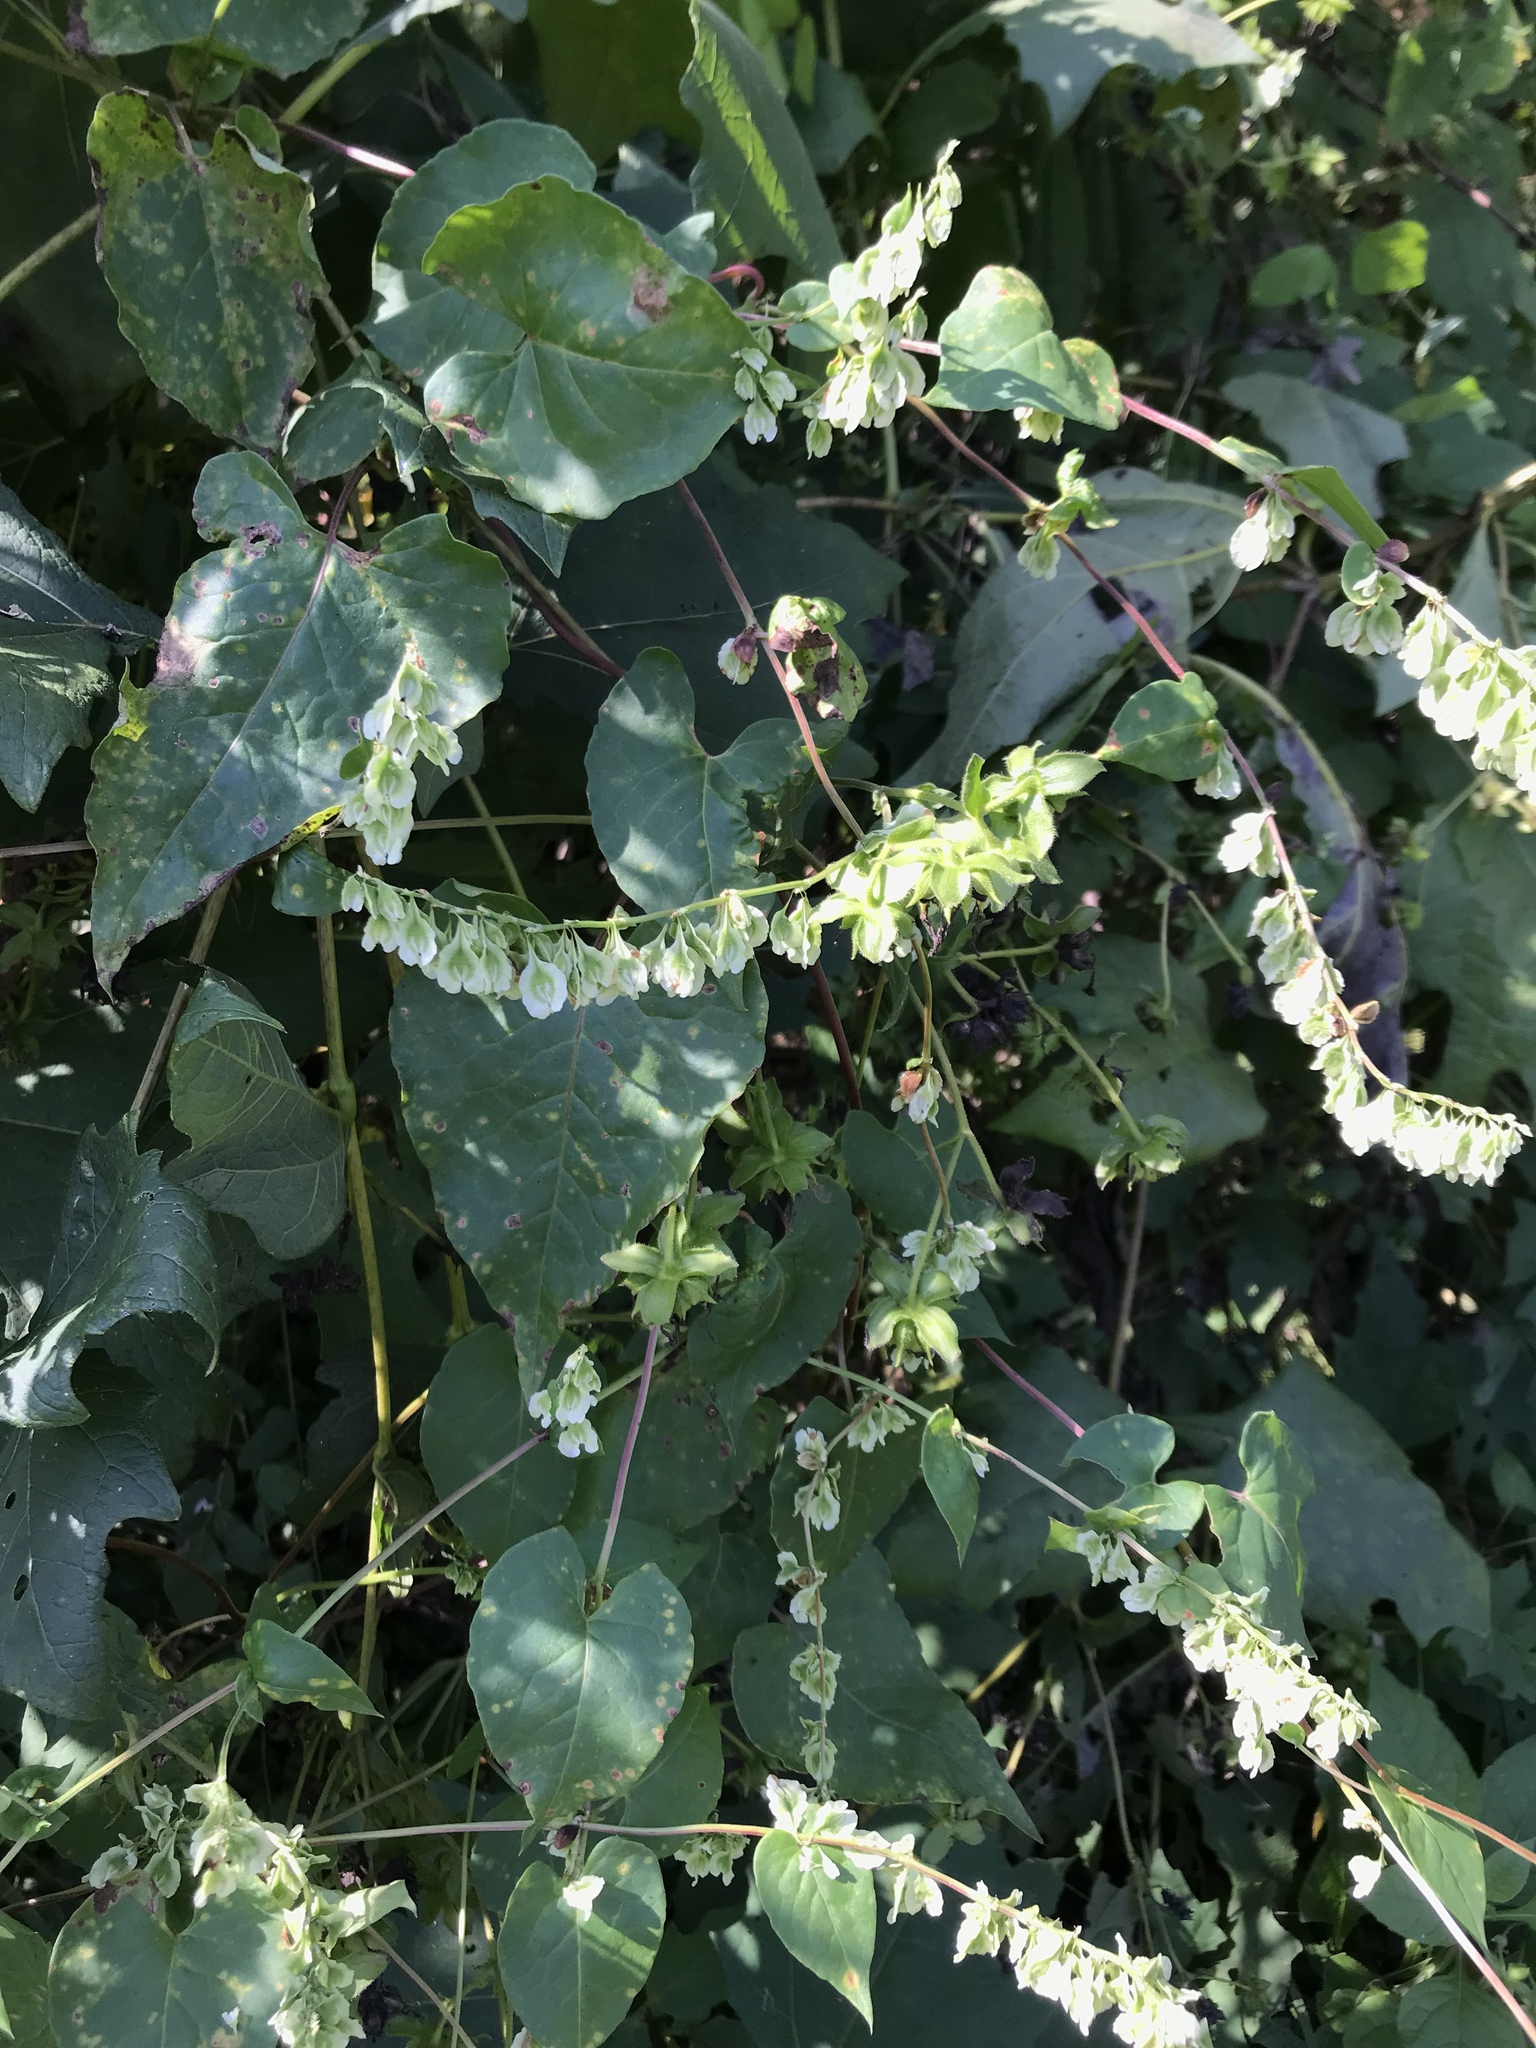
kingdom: Plantae
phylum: Tracheophyta
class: Magnoliopsida
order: Caryophyllales
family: Polygonaceae
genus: Fallopia
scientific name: Fallopia scandens
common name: Climbing false buckwheat
